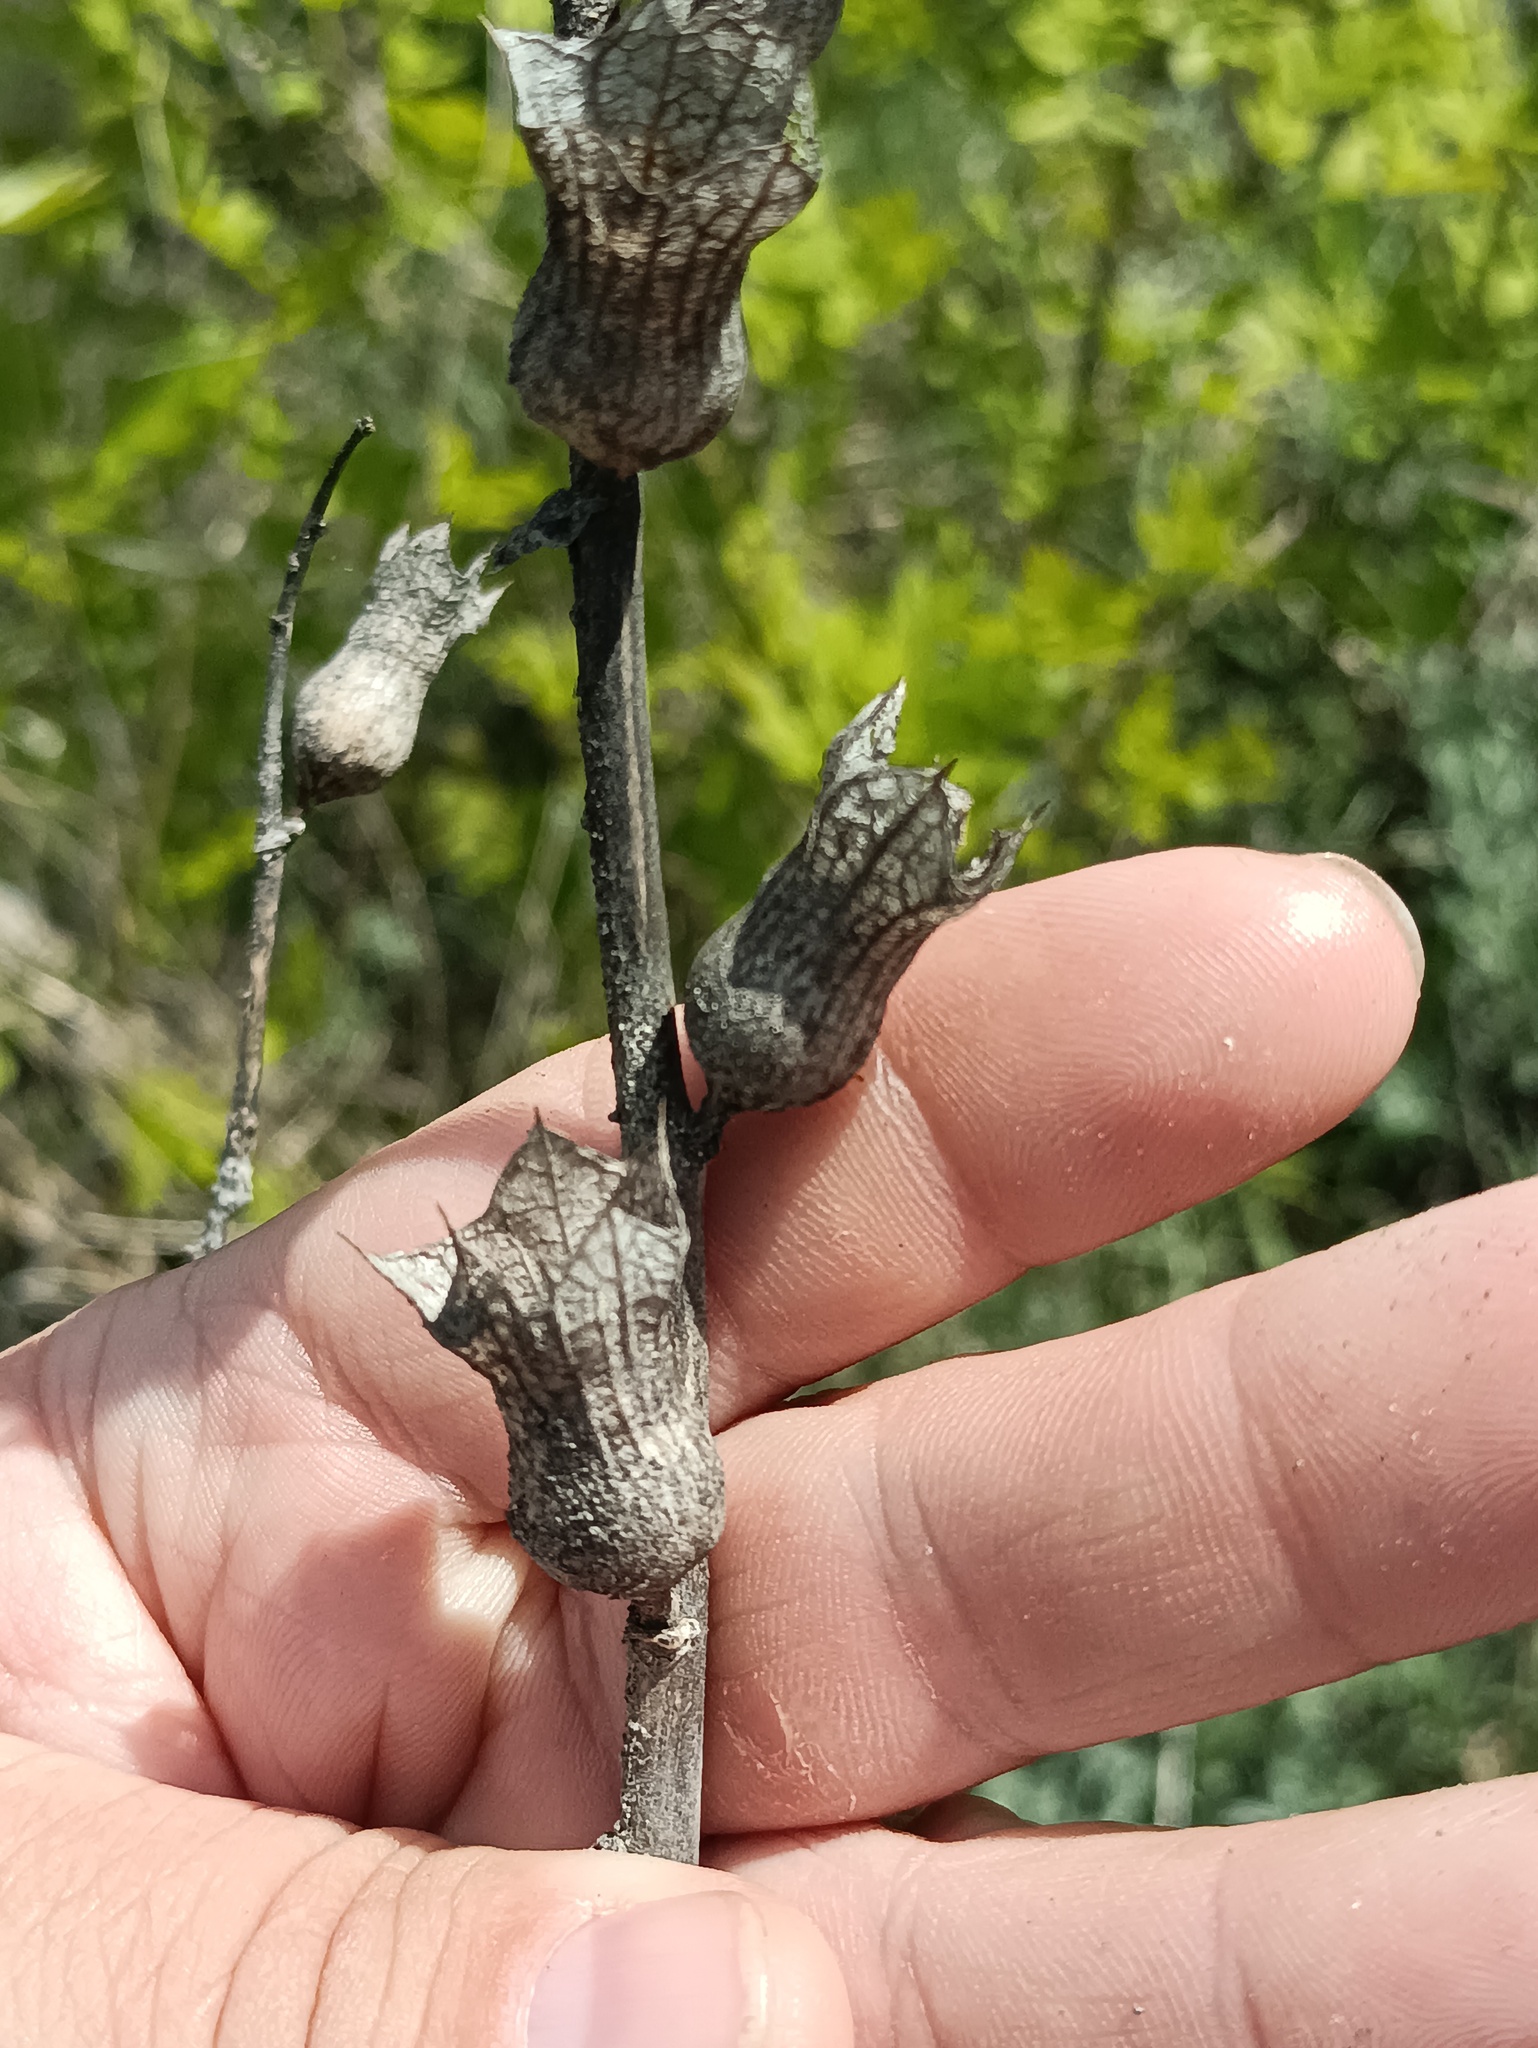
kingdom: Plantae
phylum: Tracheophyta
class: Magnoliopsida
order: Solanales
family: Solanaceae
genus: Hyoscyamus
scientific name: Hyoscyamus niger
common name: Henbane
